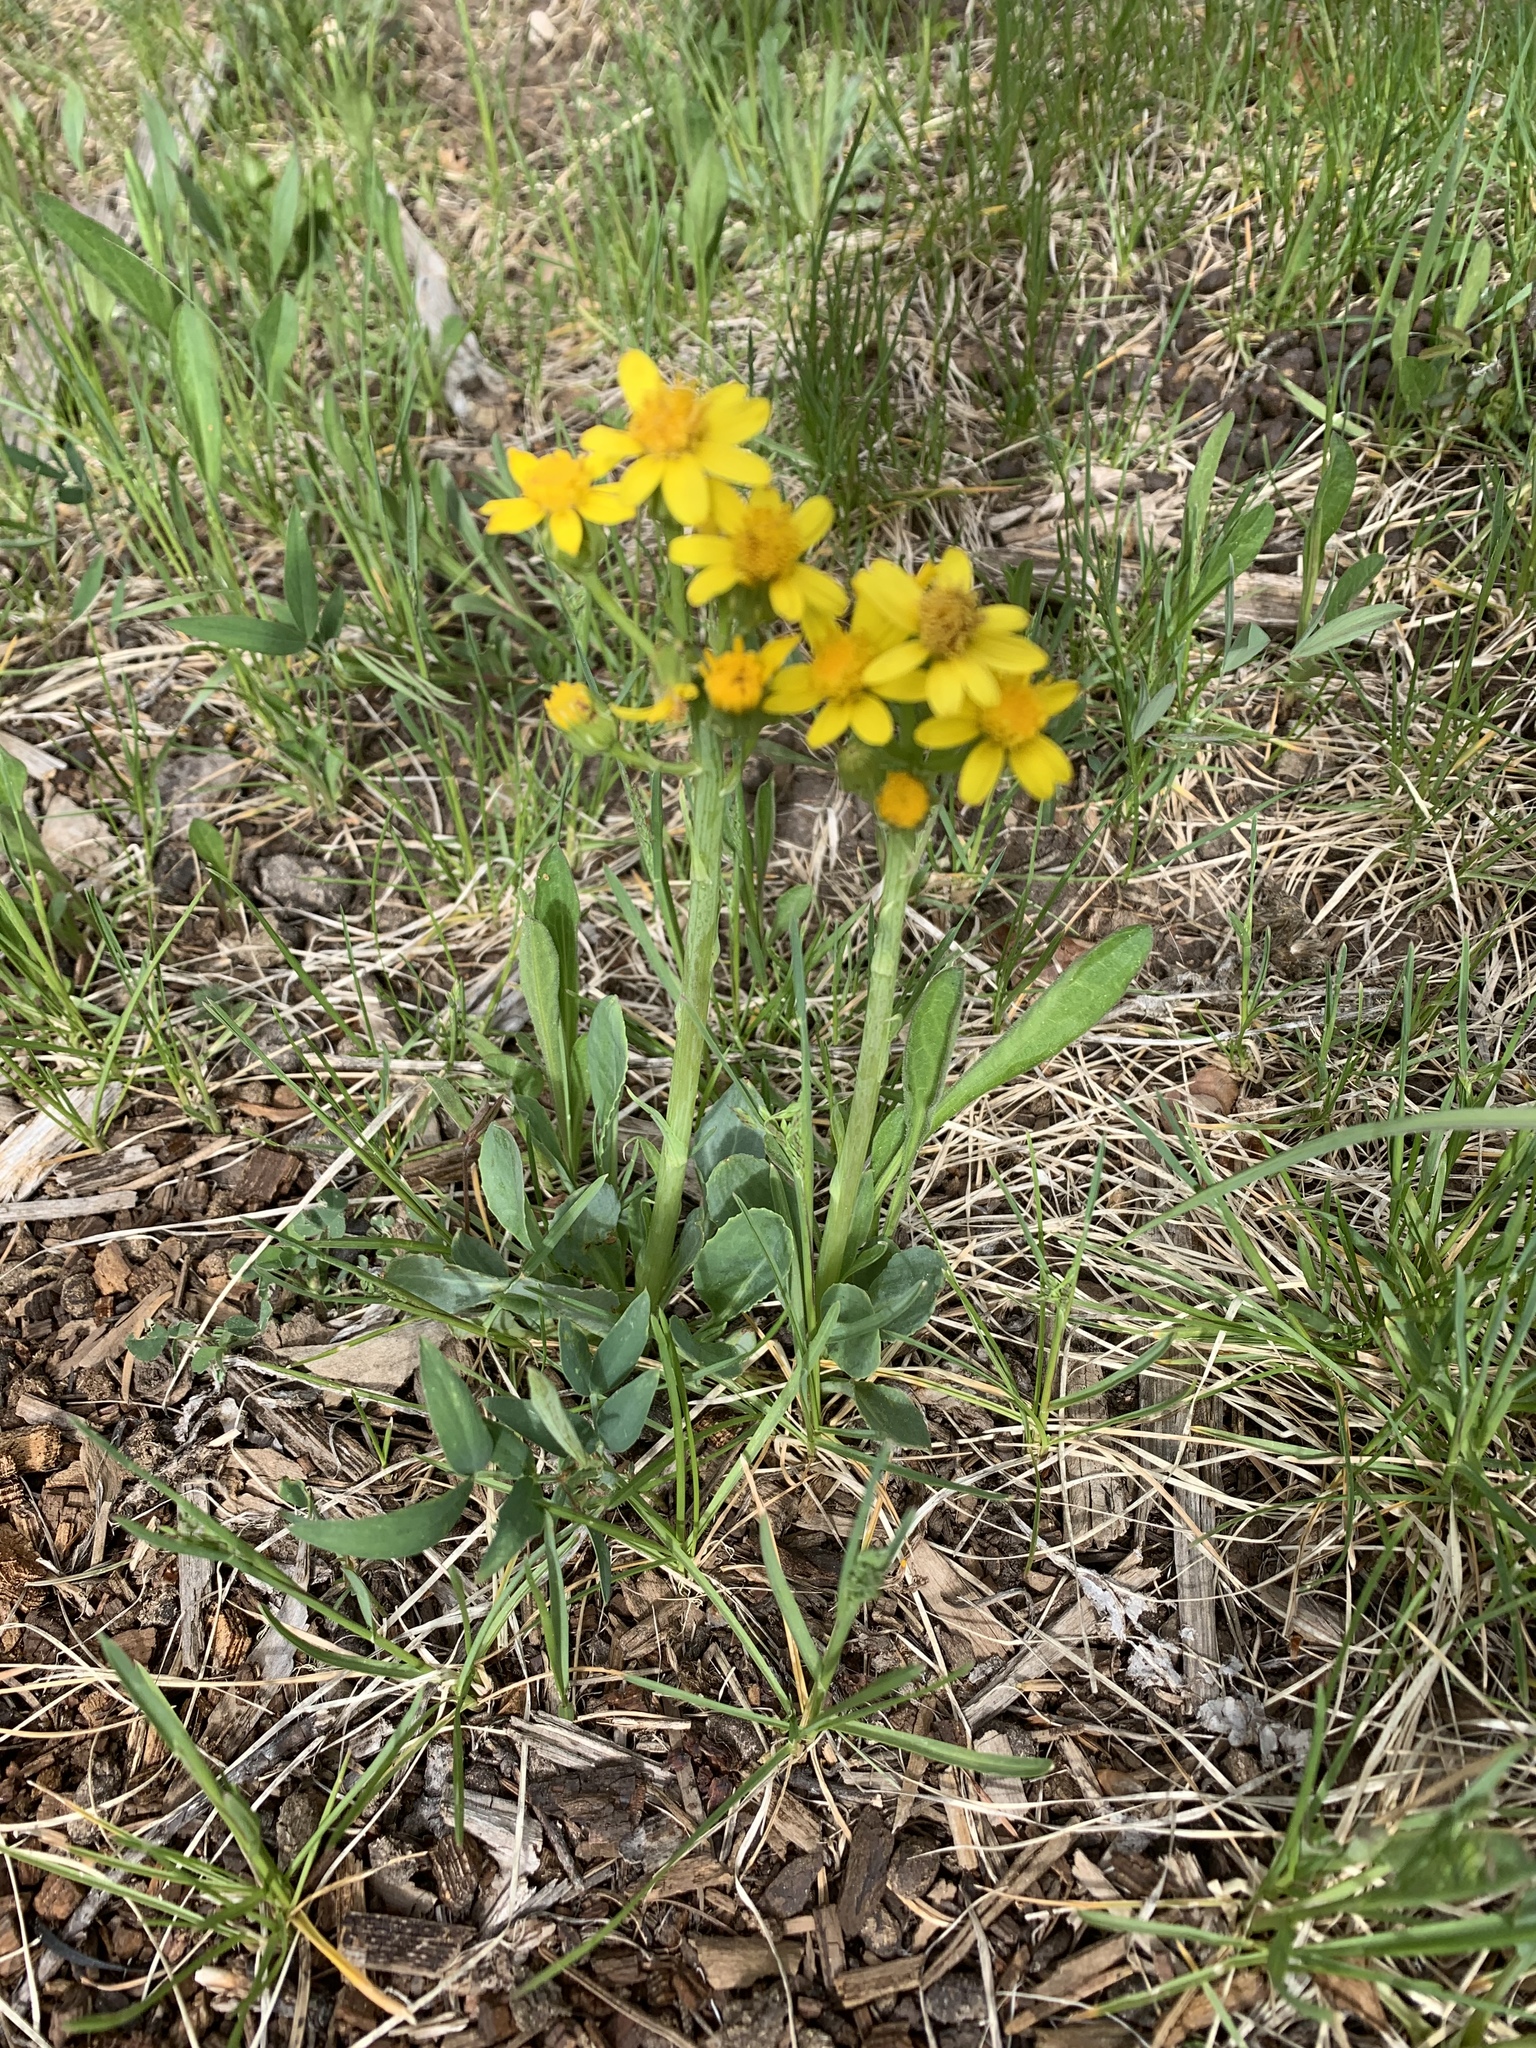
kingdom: Plantae
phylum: Tracheophyta
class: Magnoliopsida
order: Asterales
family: Asteraceae
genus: Taraxacum
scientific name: Taraxacum officinale
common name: Common dandelion
